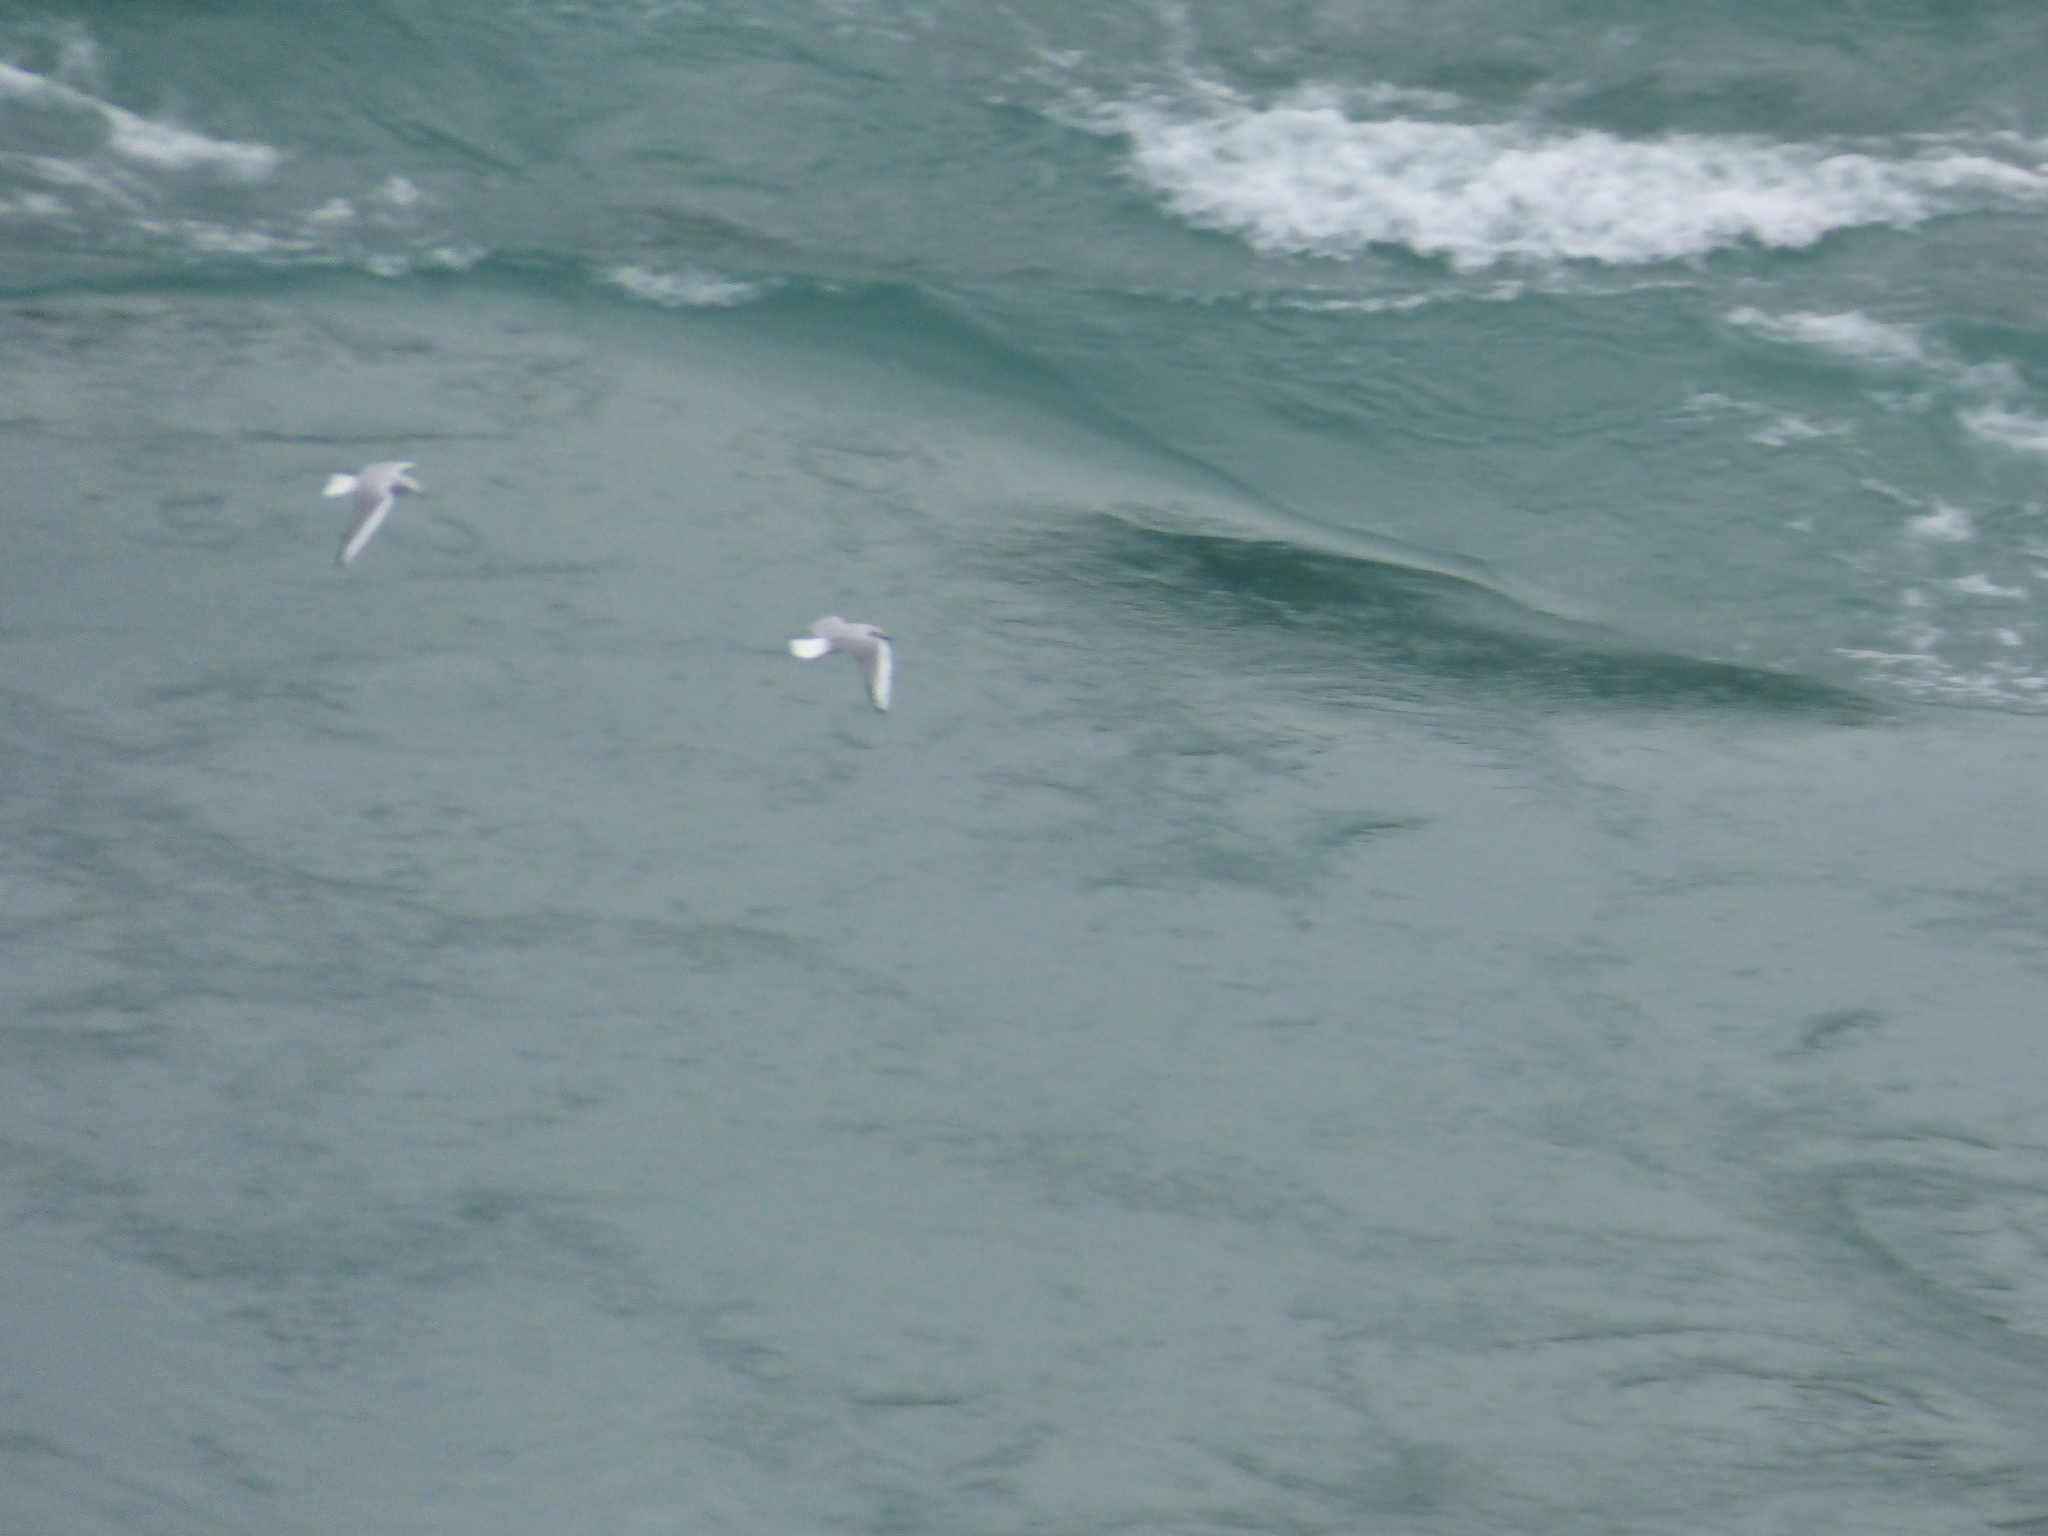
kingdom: Animalia
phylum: Chordata
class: Aves
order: Charadriiformes
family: Laridae
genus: Chroicocephalus
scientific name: Chroicocephalus philadelphia
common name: Bonaparte's gull
